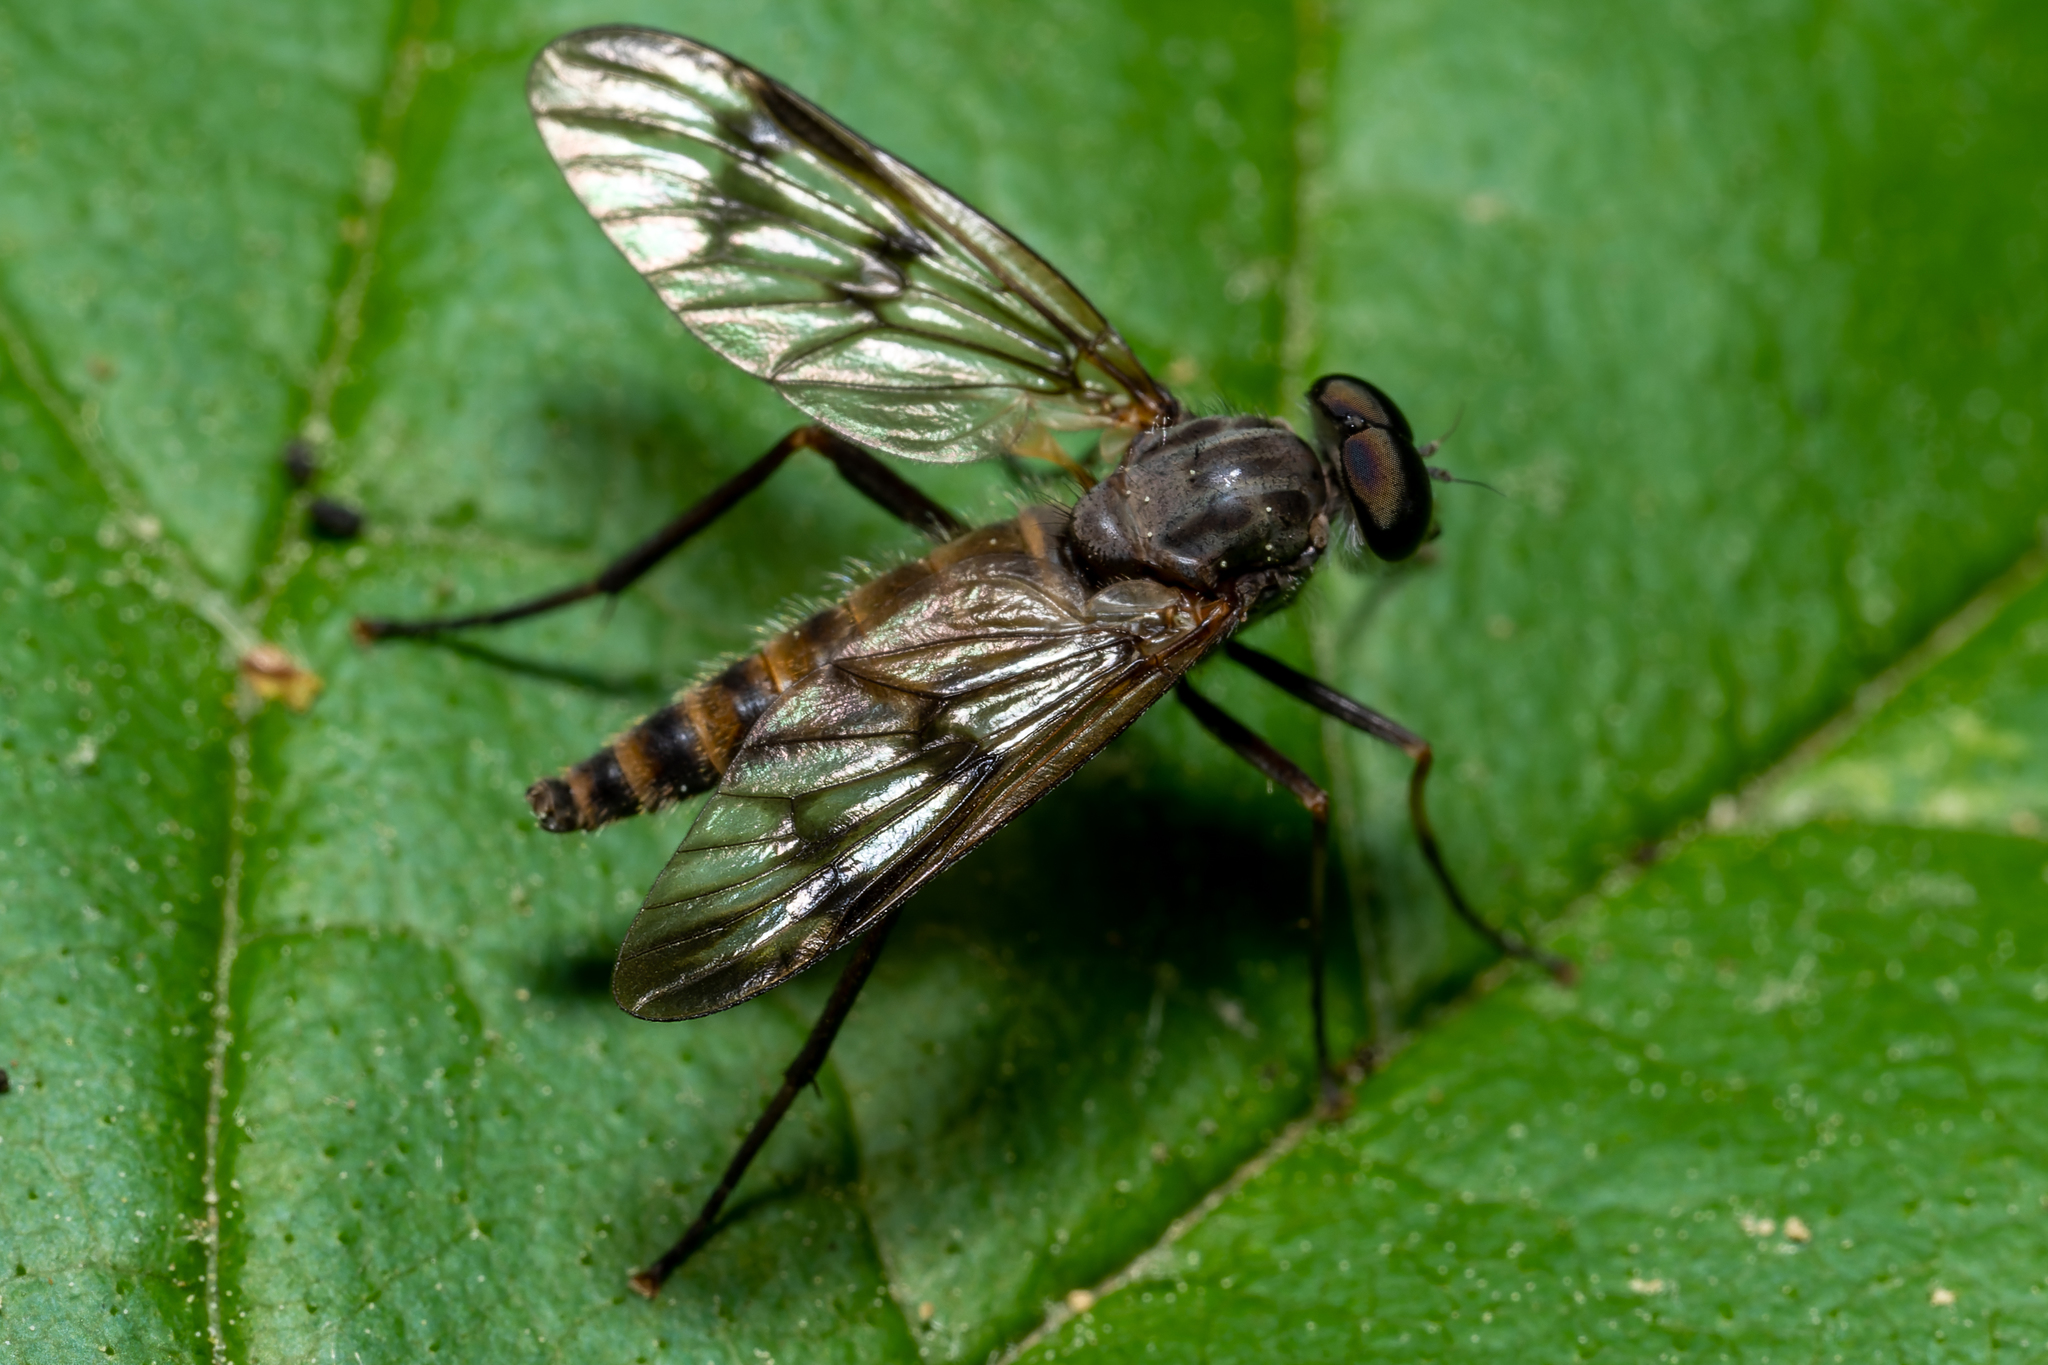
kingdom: Animalia
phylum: Arthropoda
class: Insecta
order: Diptera
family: Rhagionidae
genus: Rhagio
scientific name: Rhagio mystaceus
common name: Common snipe fly
